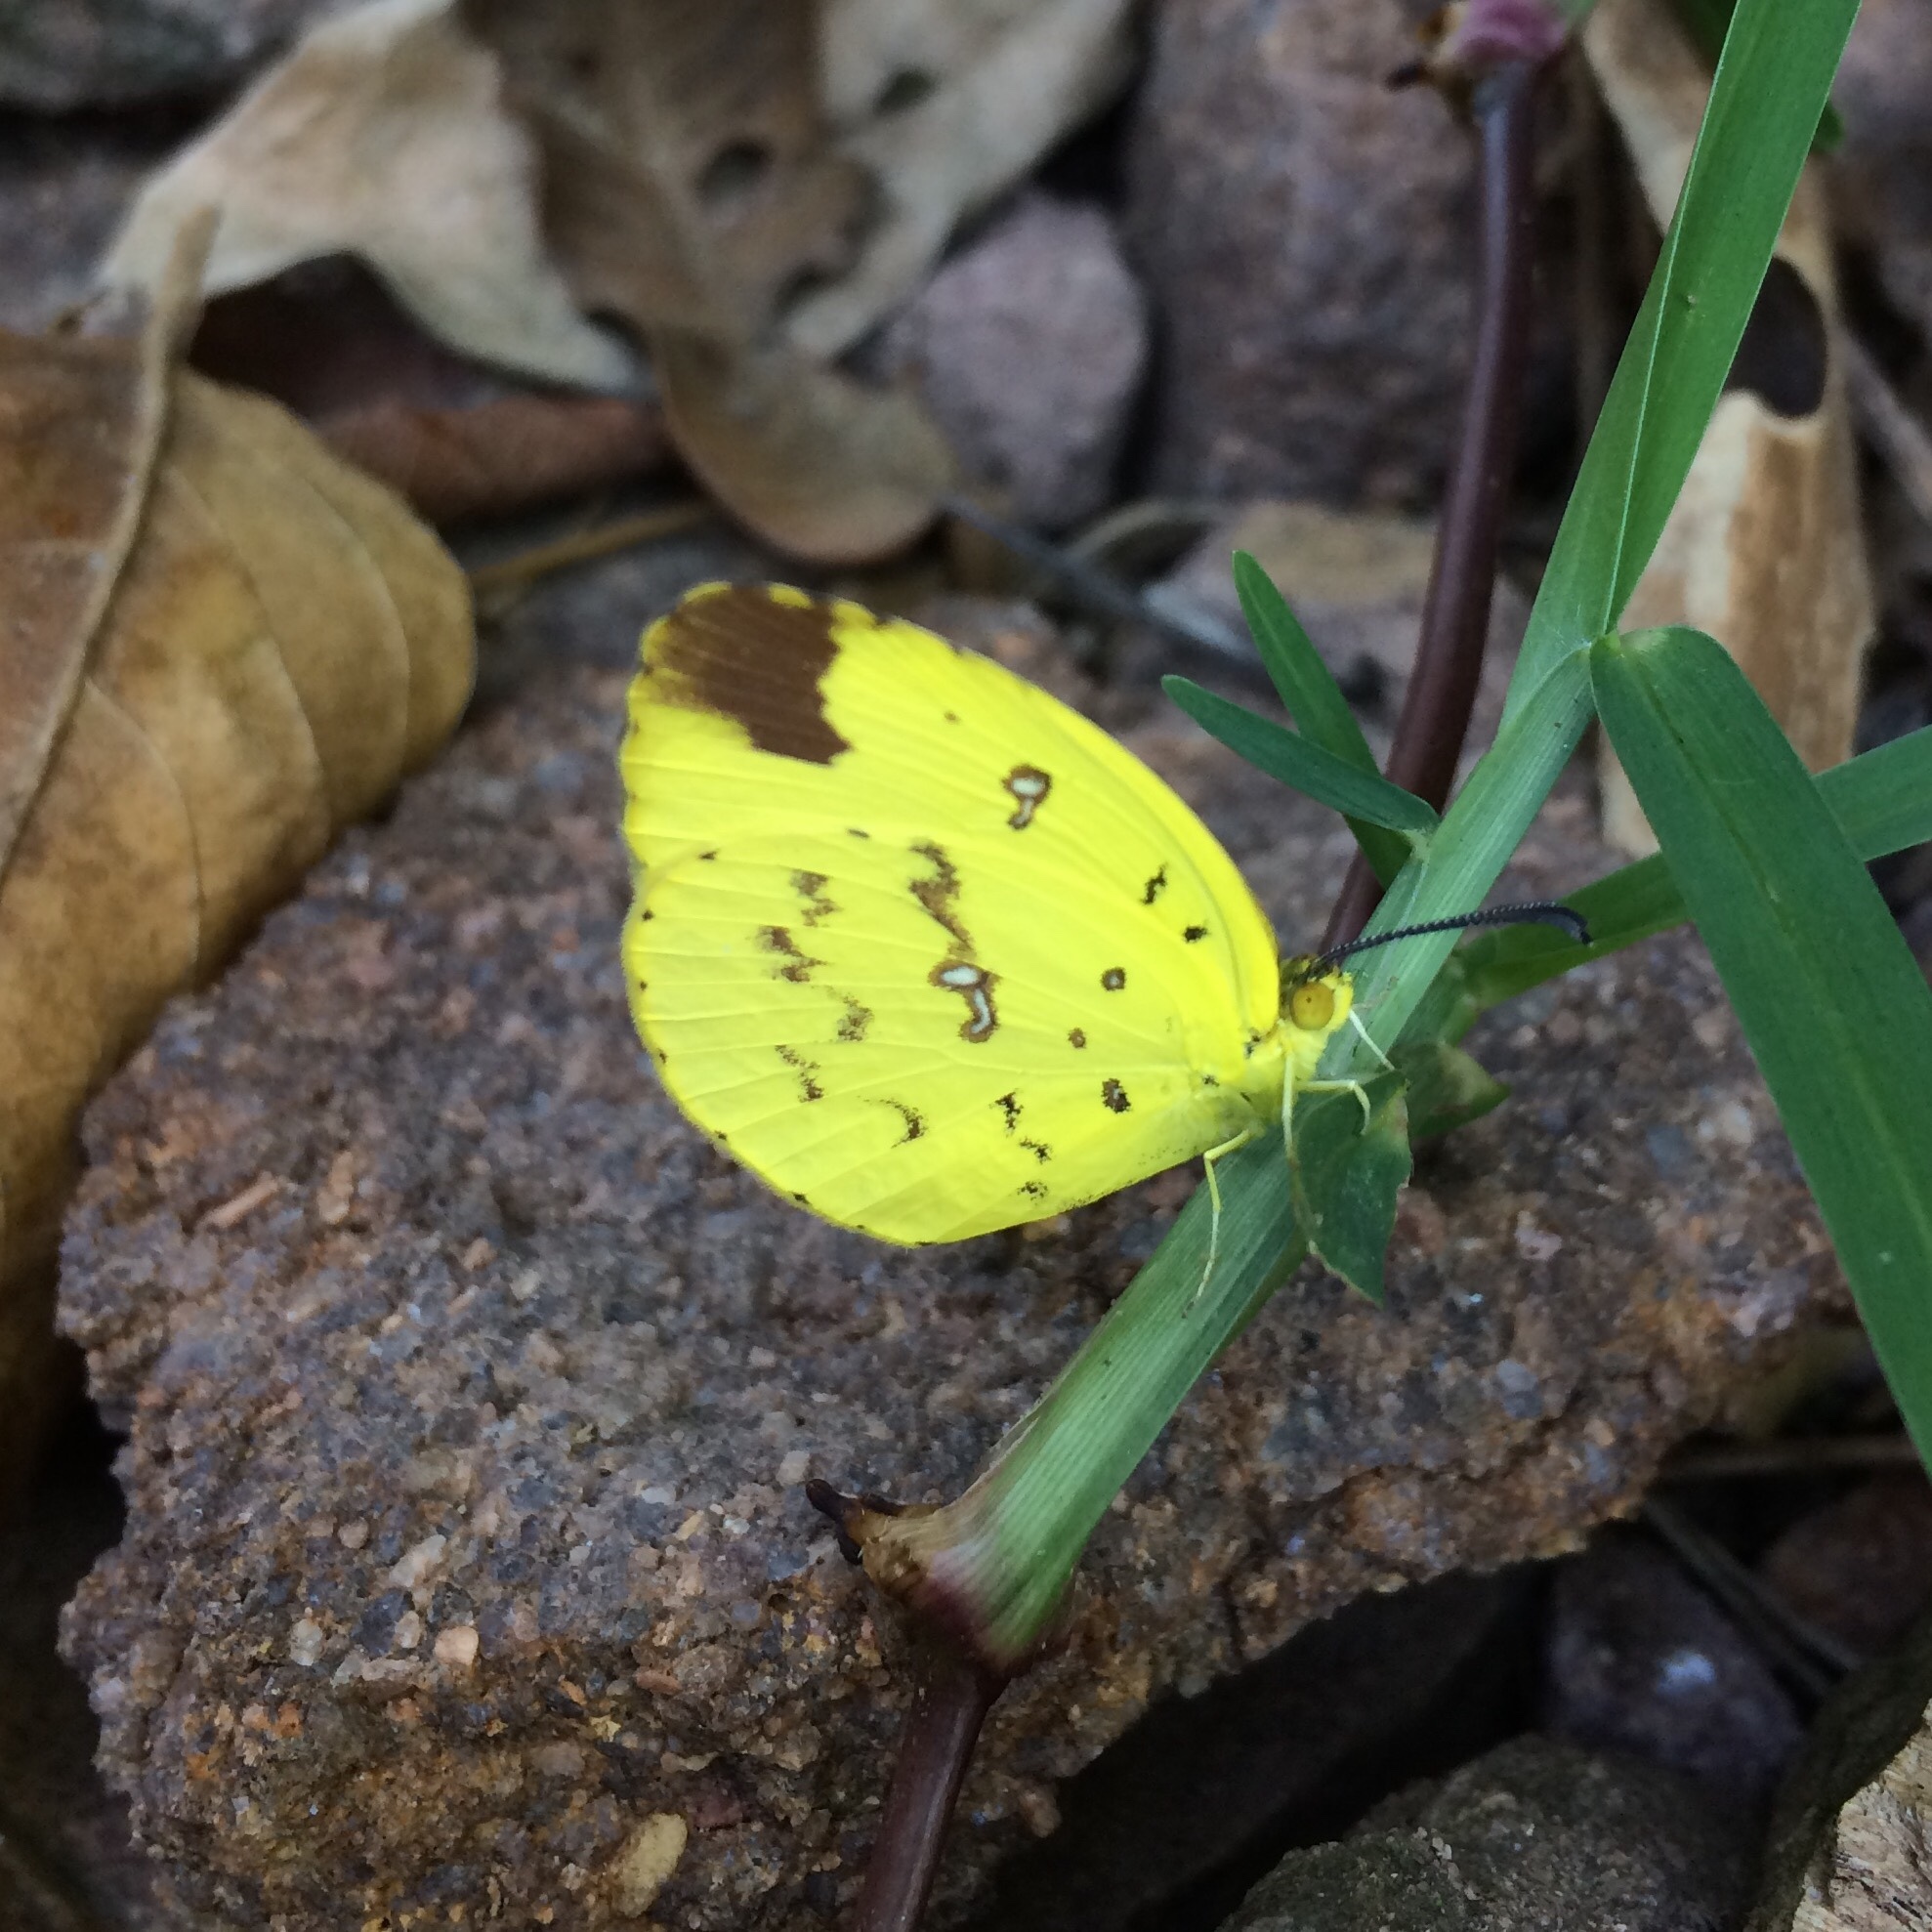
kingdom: Animalia
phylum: Arthropoda
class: Insecta
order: Lepidoptera
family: Pieridae
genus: Eurema
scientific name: Eurema floricola
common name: Malagasy grass yellow
